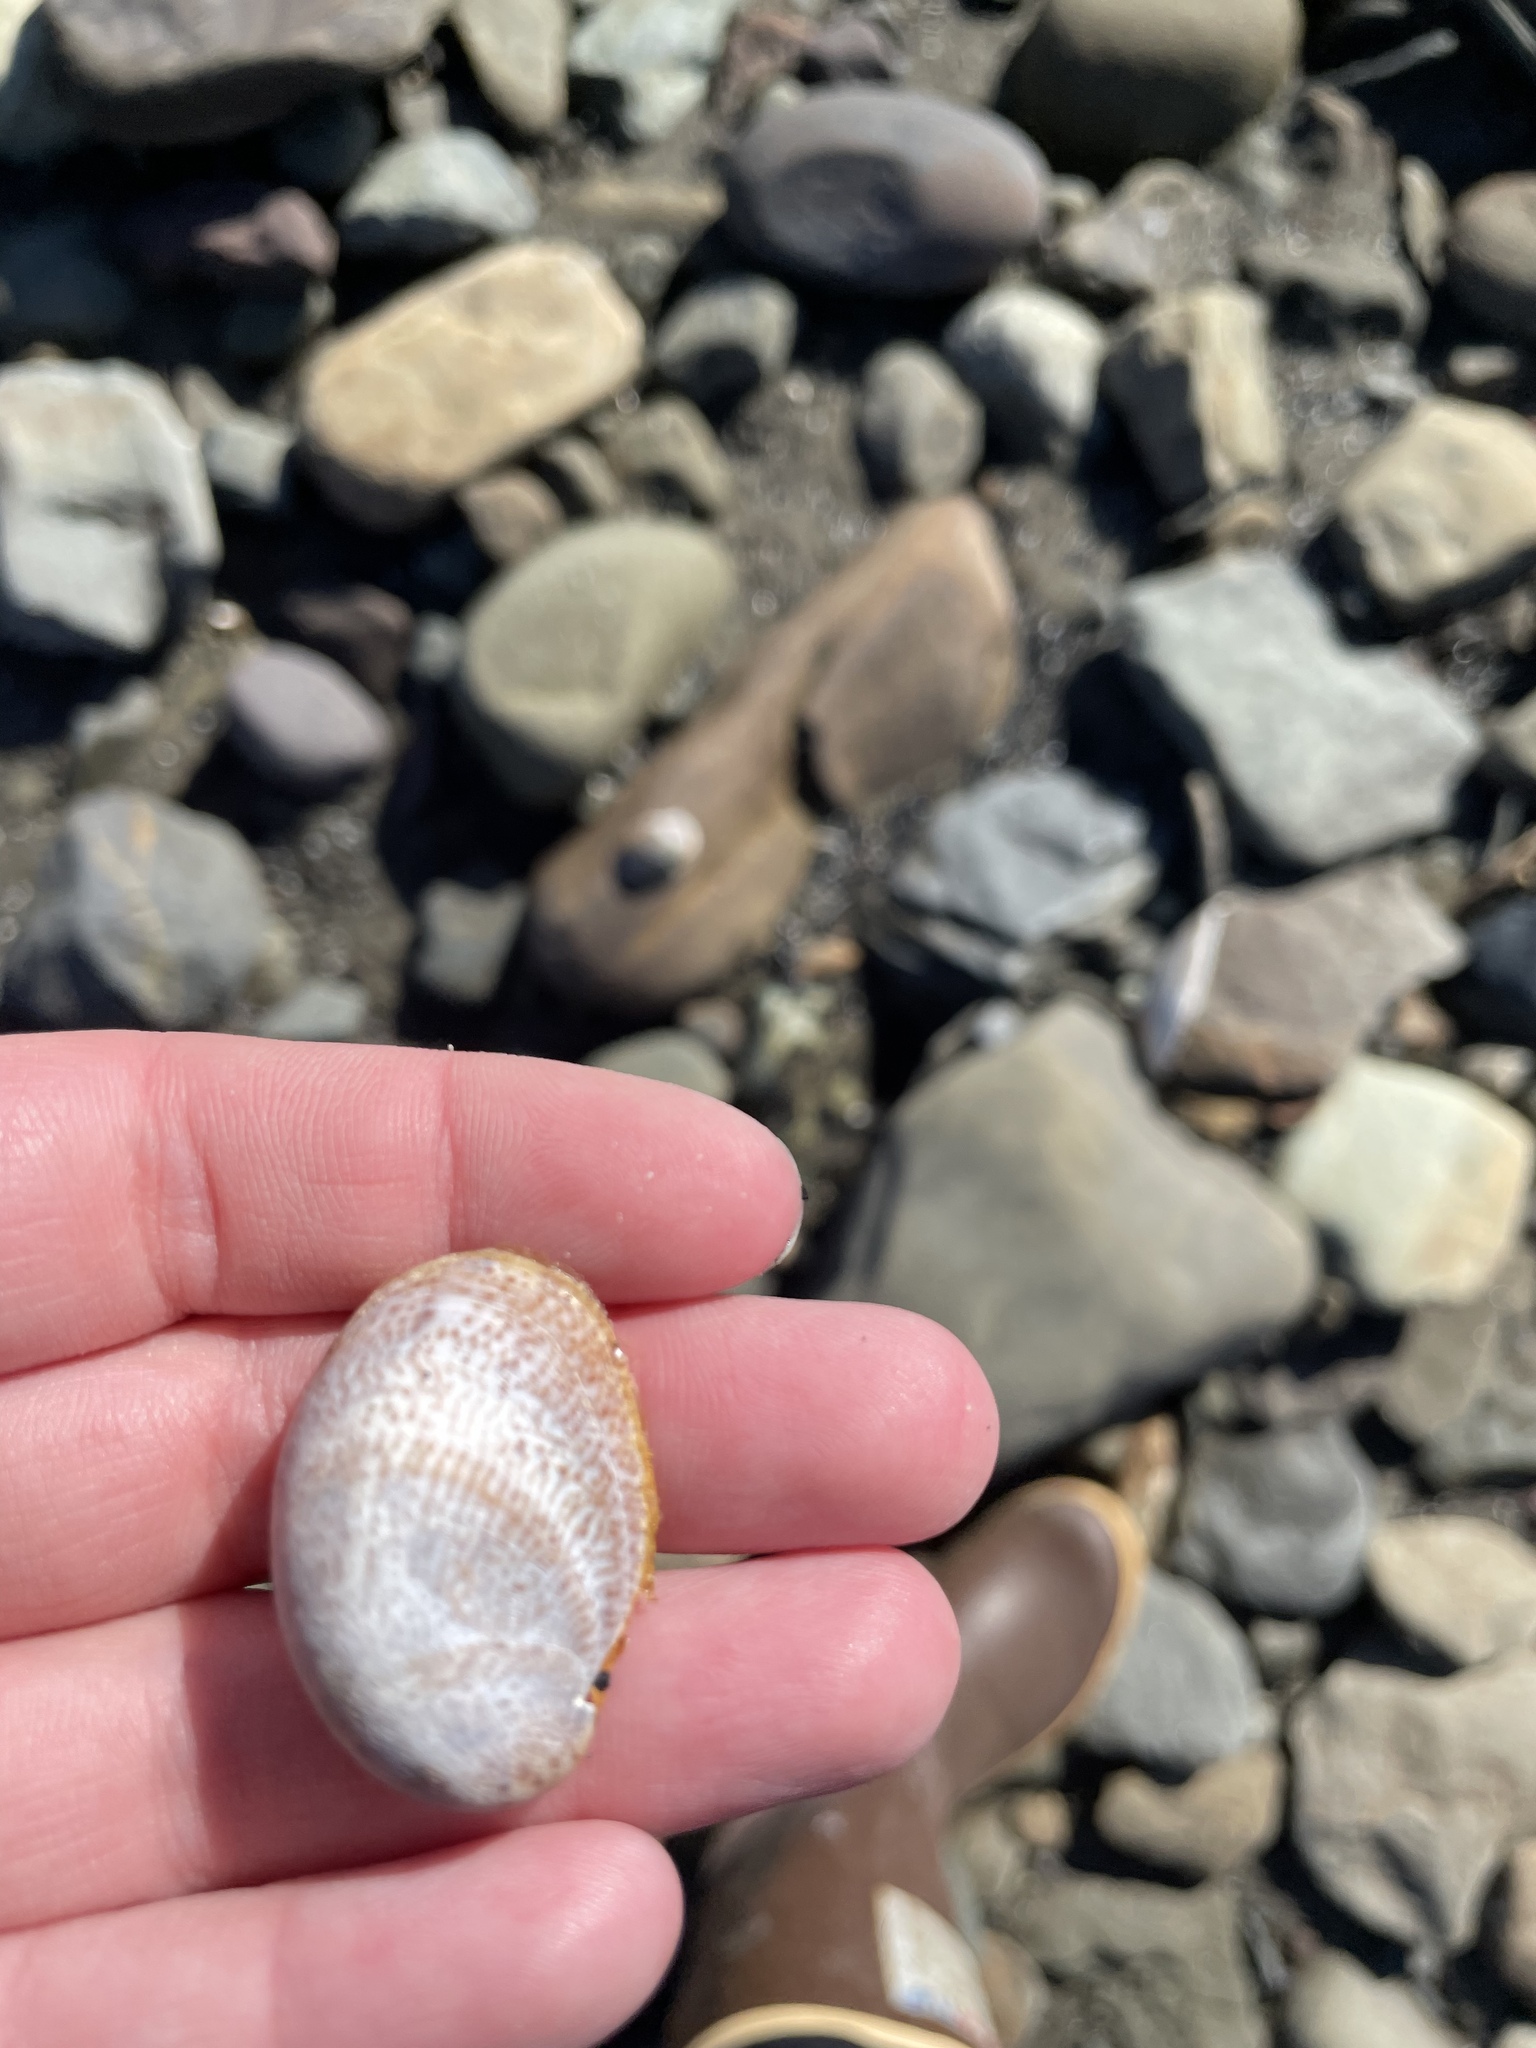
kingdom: Animalia
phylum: Mollusca
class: Gastropoda
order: Littorinimorpha
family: Calyptraeidae
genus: Crepidula
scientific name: Crepidula fornicata
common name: Slipper limpet
